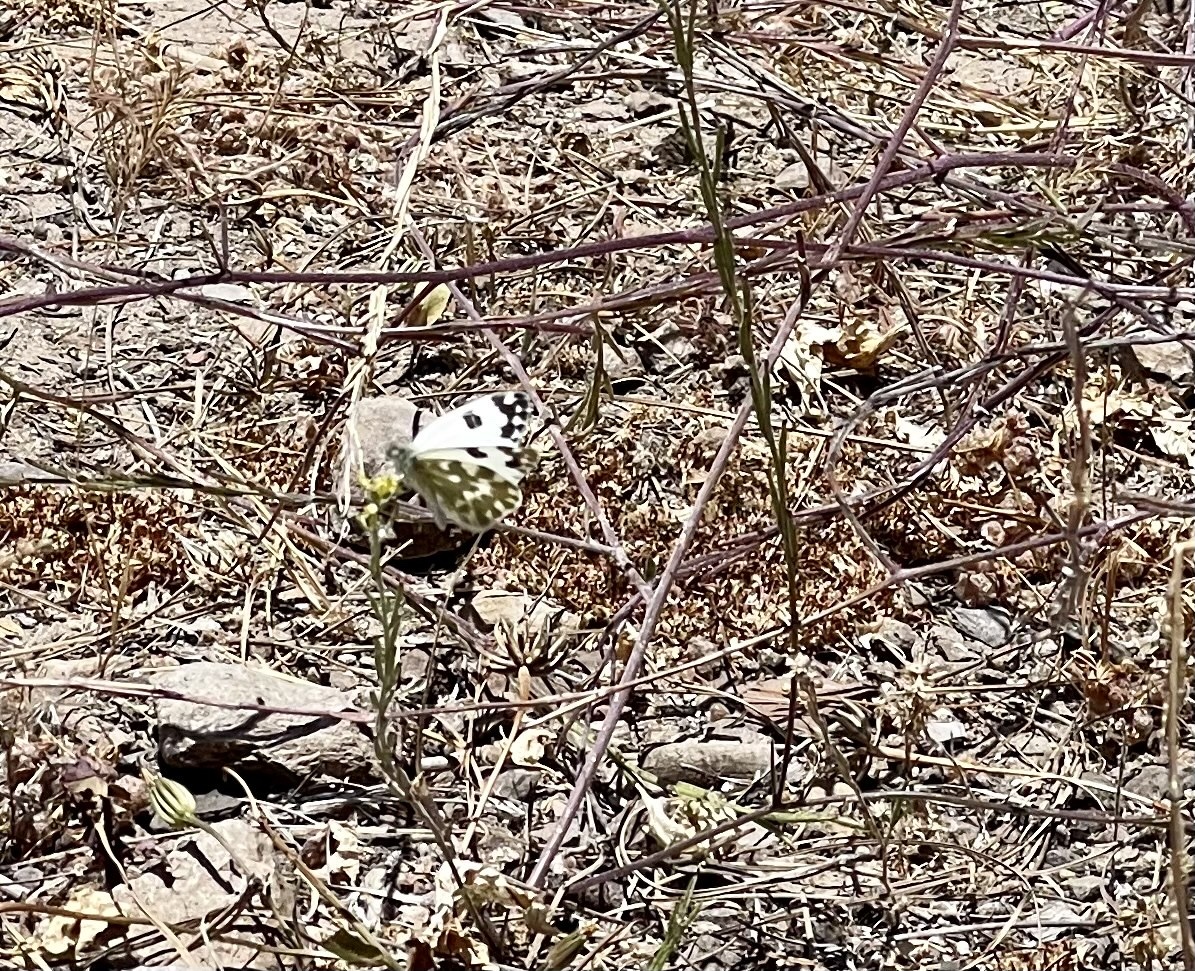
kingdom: Animalia
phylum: Arthropoda
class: Insecta
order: Lepidoptera
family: Pieridae
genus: Pontia
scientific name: Pontia daplidice
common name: Bath white
